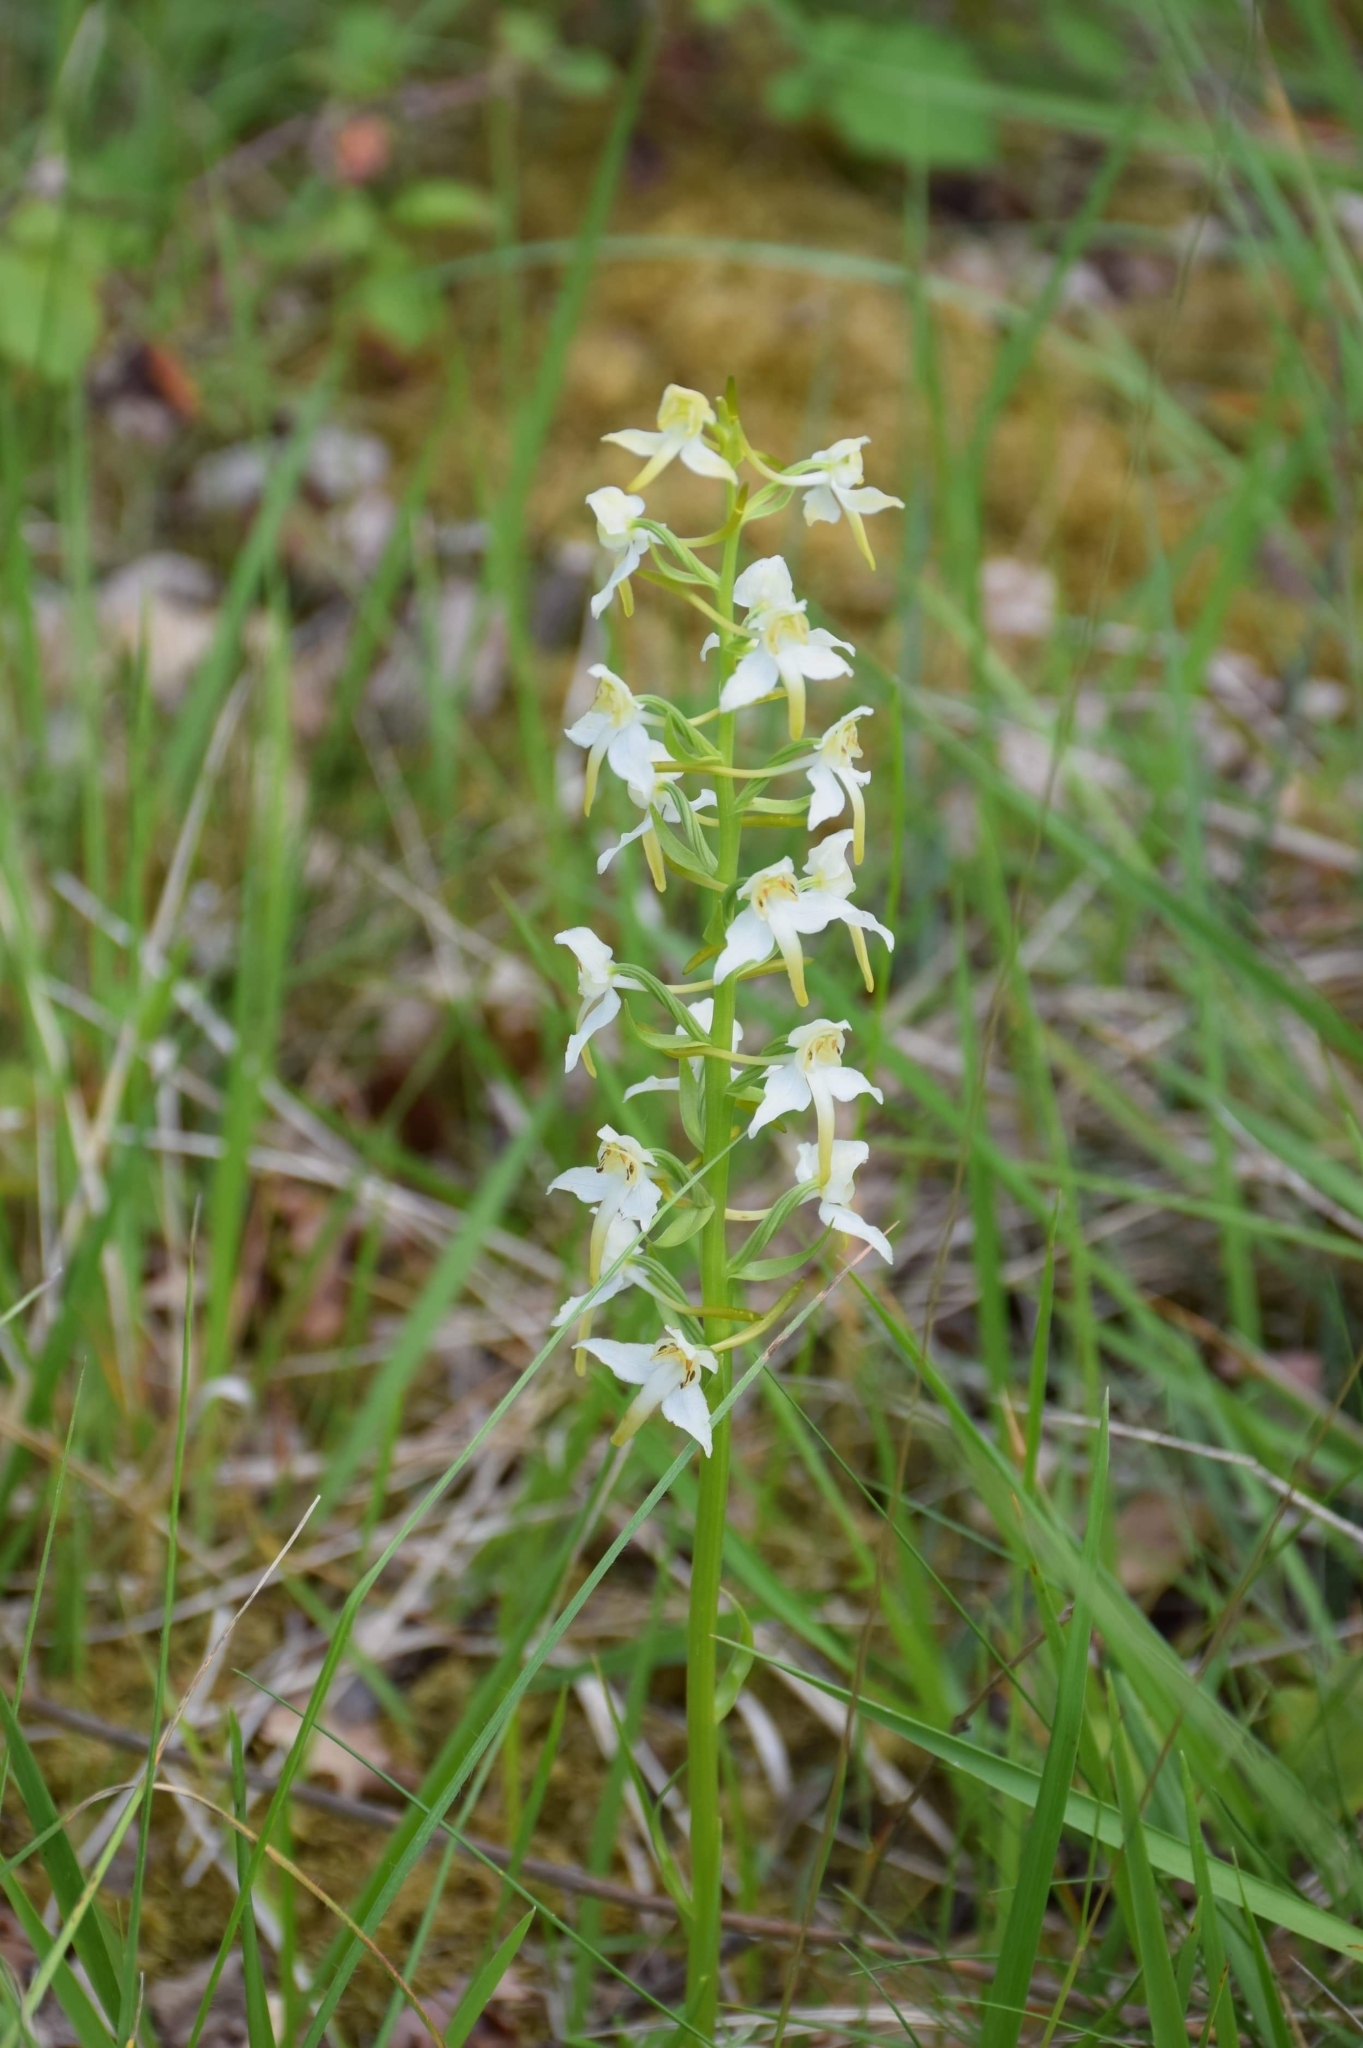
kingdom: Plantae
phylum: Tracheophyta
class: Liliopsida
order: Asparagales
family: Orchidaceae
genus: Platanthera
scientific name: Platanthera chlorantha
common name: Greater butterfly-orchid
